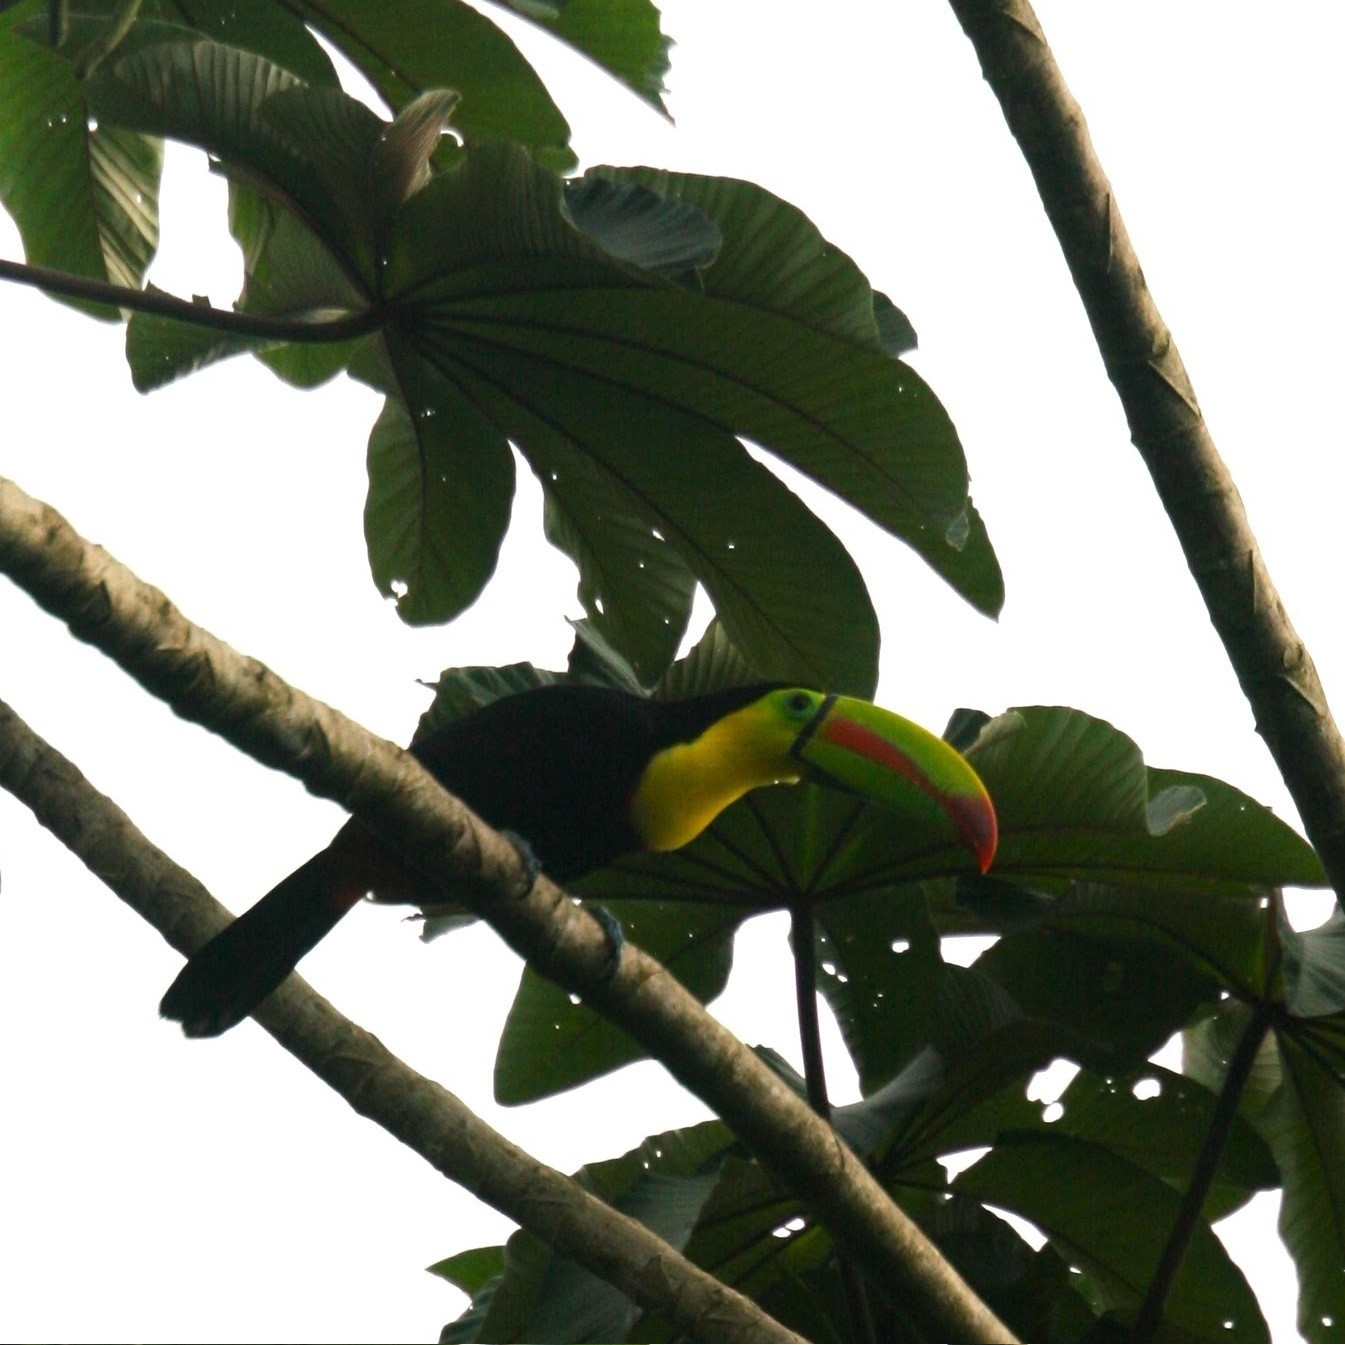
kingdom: Animalia
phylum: Chordata
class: Aves
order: Piciformes
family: Ramphastidae
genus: Ramphastos
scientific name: Ramphastos sulfuratus
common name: Keel-billed toucan
